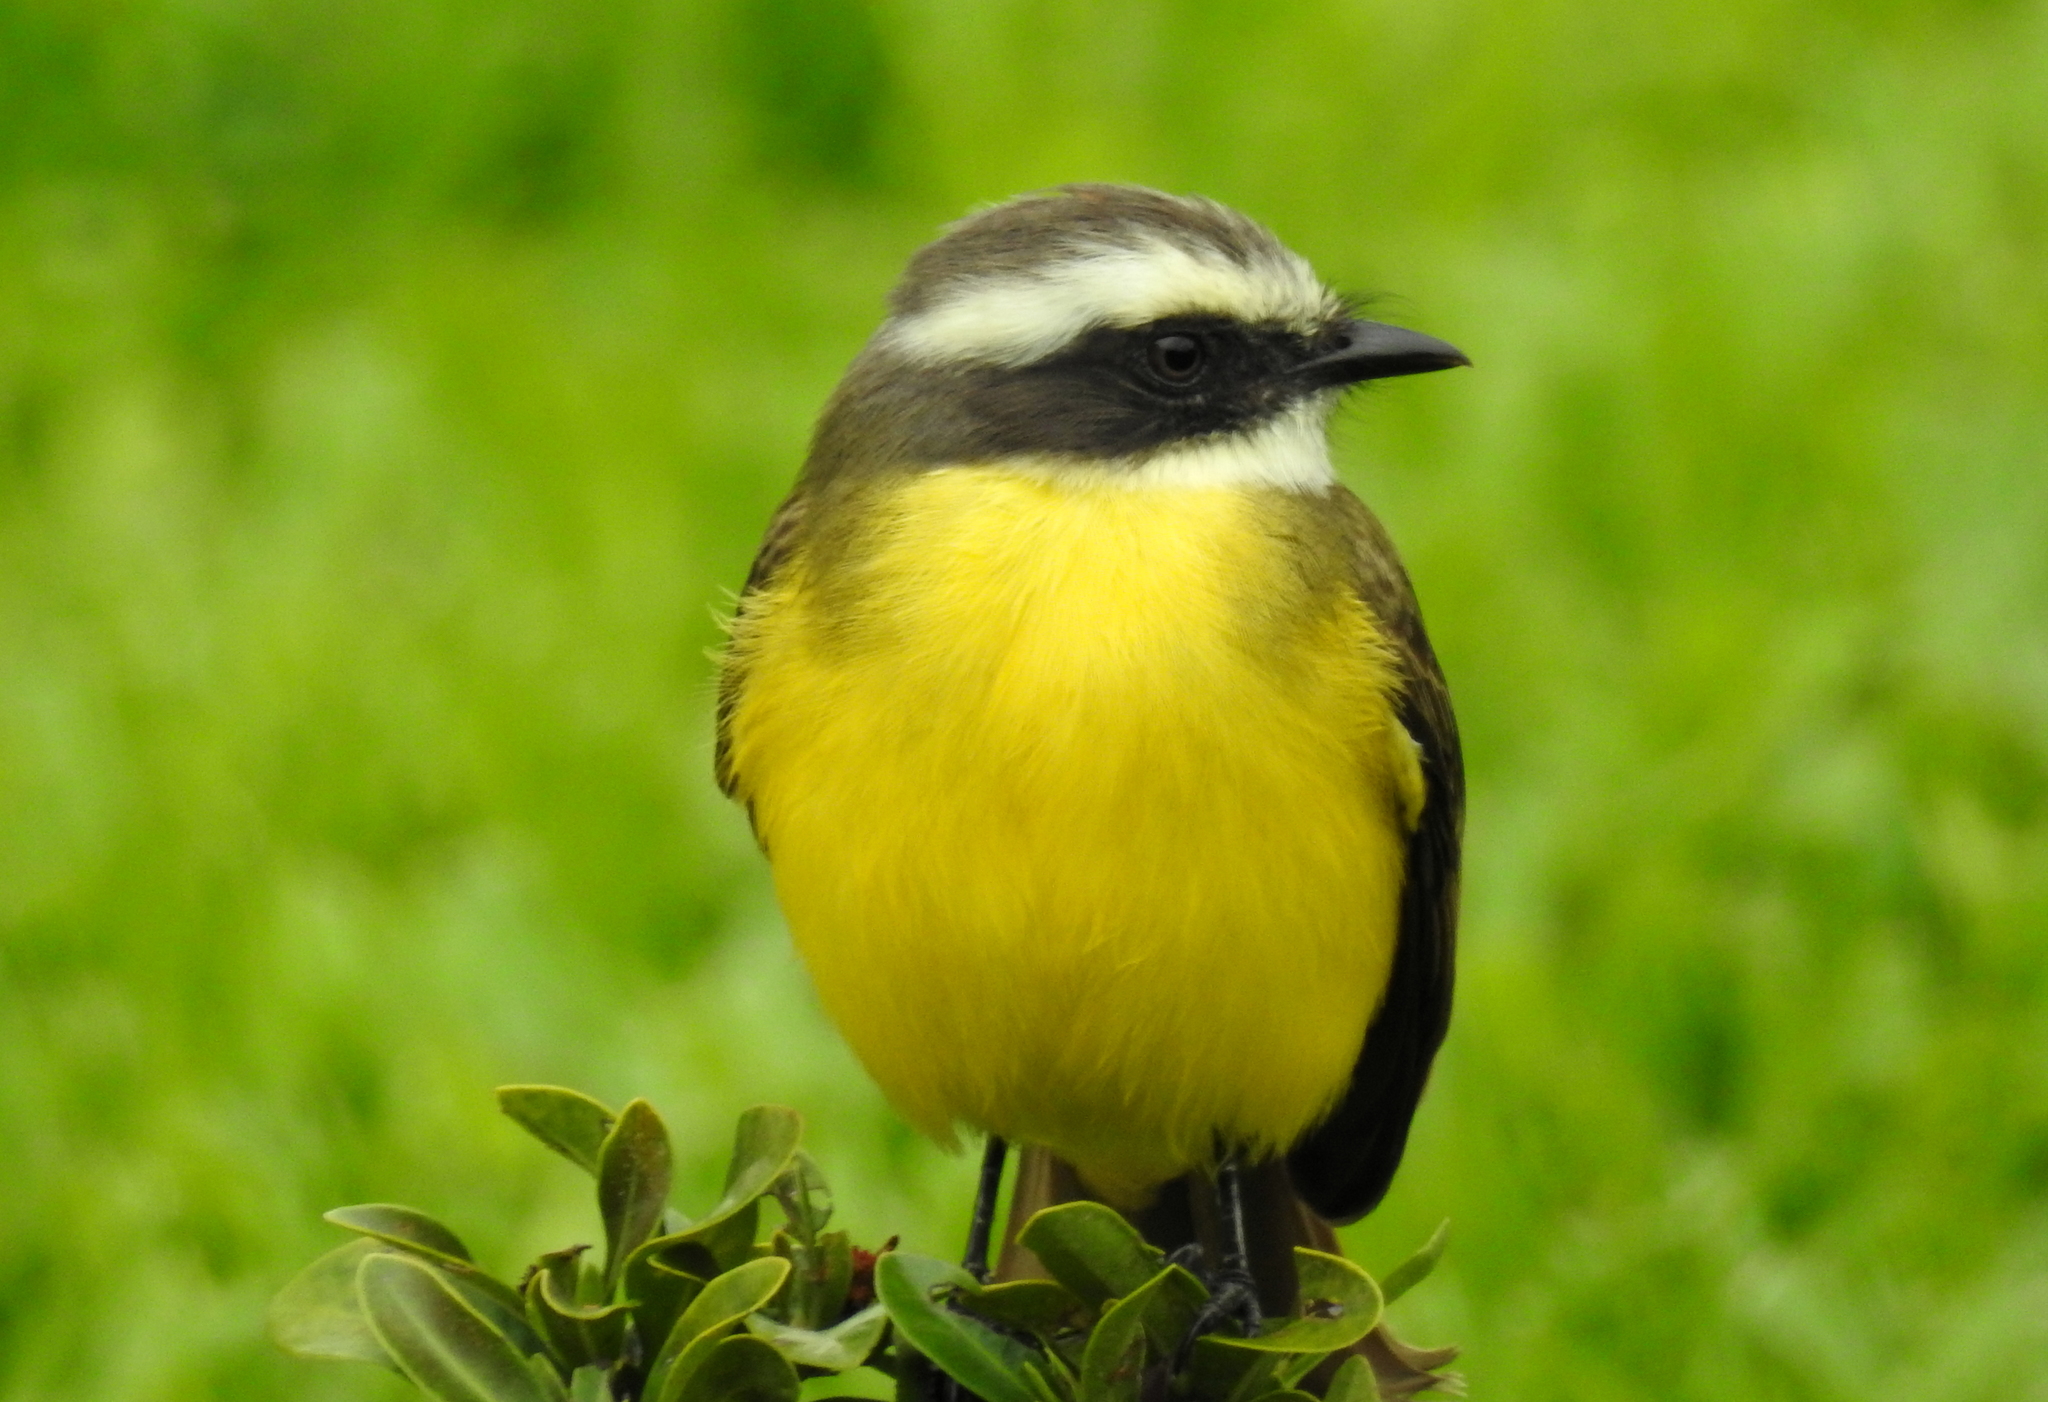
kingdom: Animalia
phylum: Chordata
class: Aves
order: Passeriformes
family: Tyrannidae
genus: Myiozetetes
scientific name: Myiozetetes similis
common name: Social flycatcher
